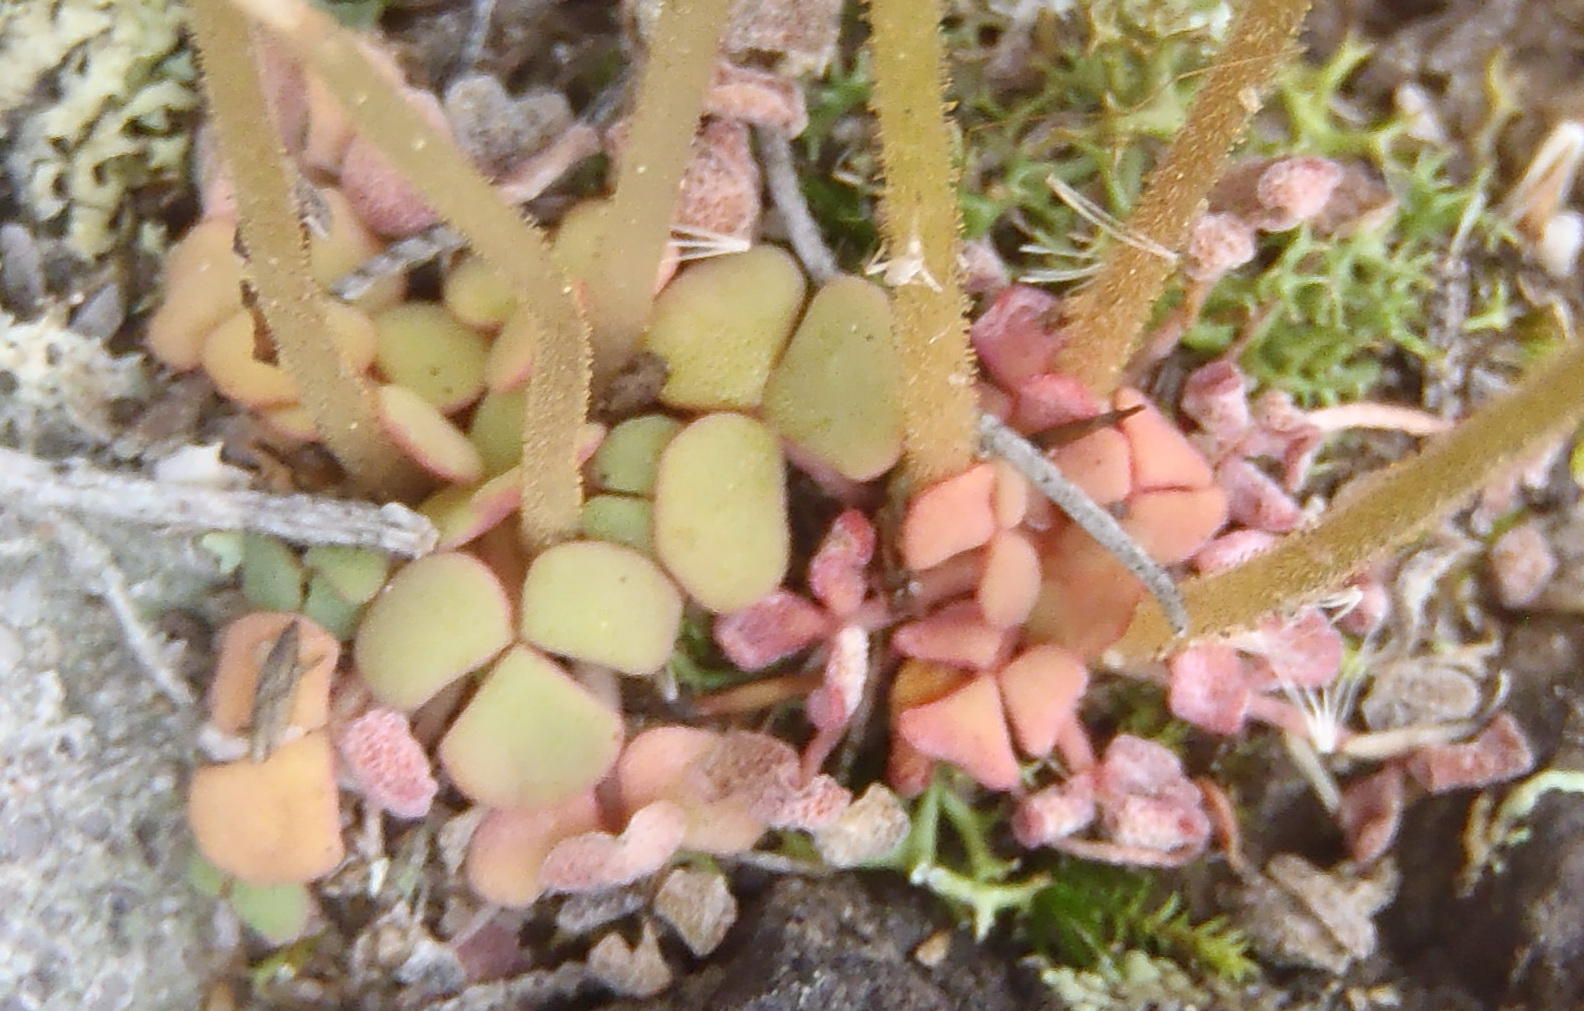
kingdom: Plantae
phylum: Tracheophyta
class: Magnoliopsida
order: Oxalidales
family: Oxalidaceae
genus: Oxalis
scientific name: Oxalis fergusoniae
